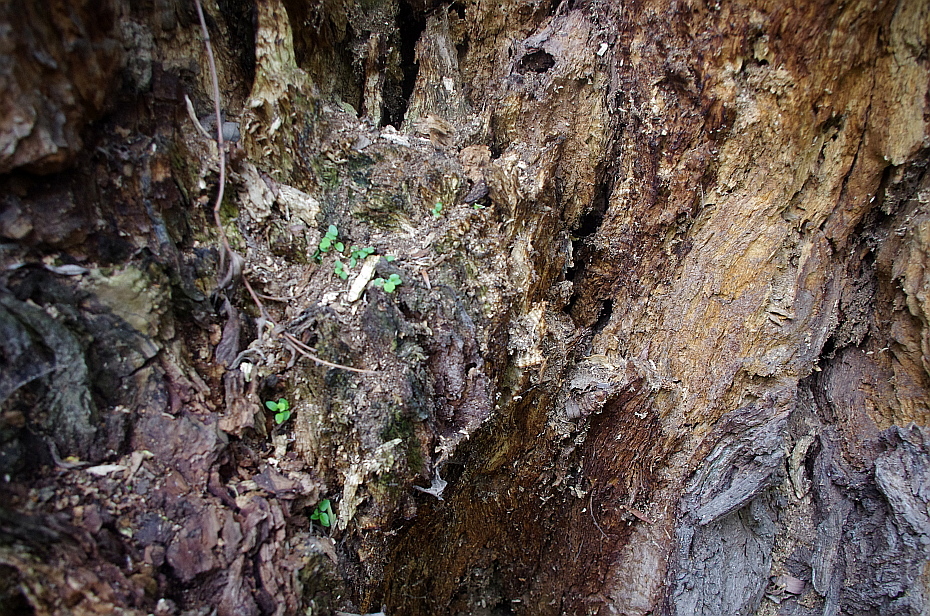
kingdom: Plantae
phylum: Tracheophyta
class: Magnoliopsida
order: Malpighiales
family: Salicaceae
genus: Salix
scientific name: Salix fragilis
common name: Crack willow
